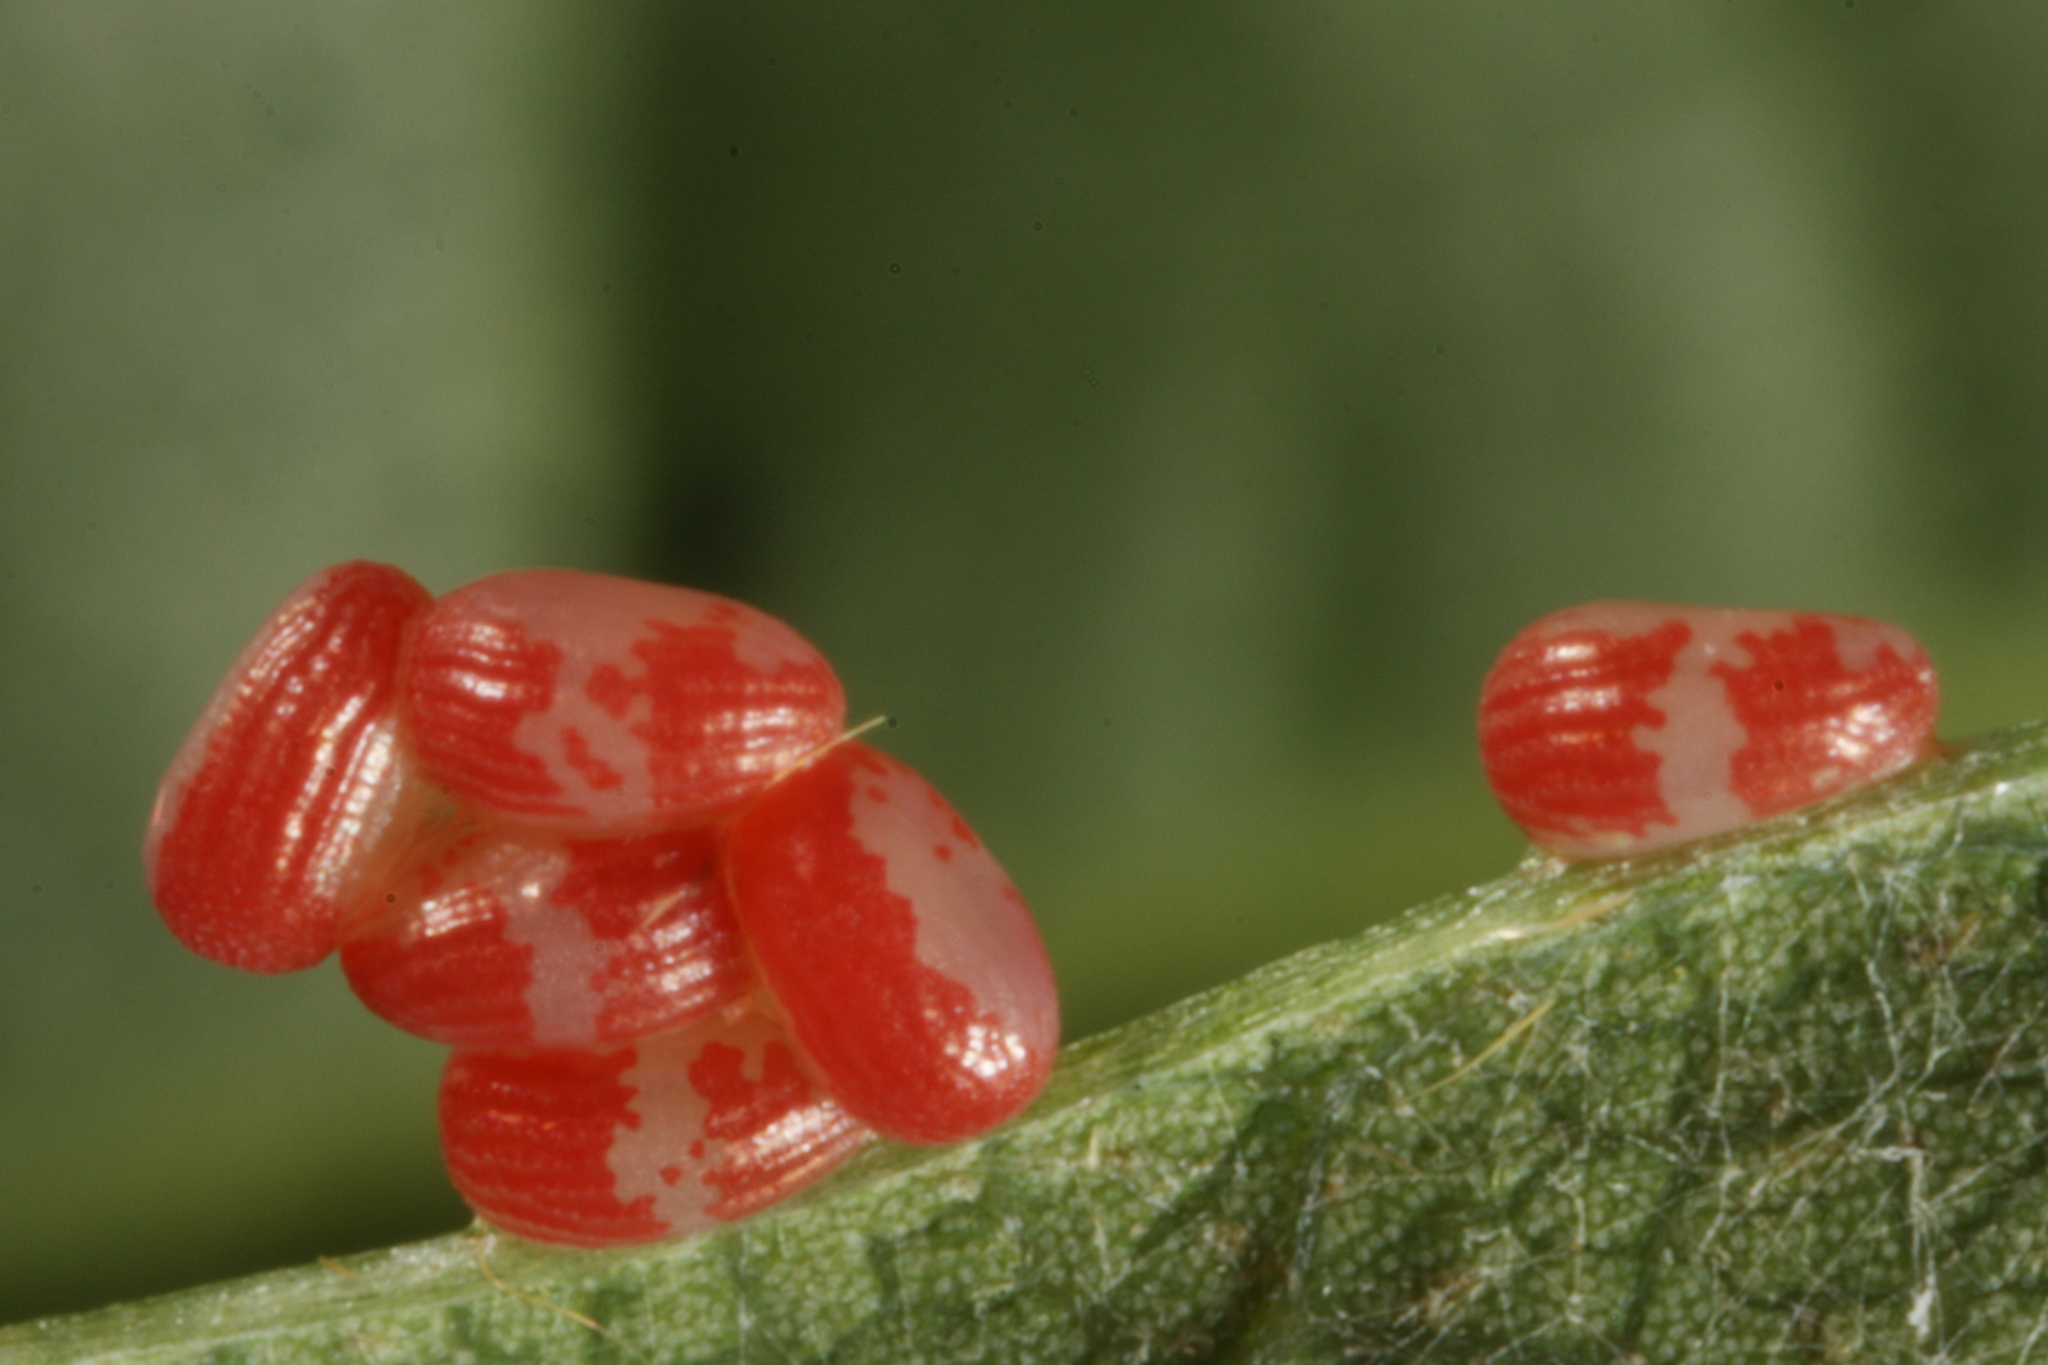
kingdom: Animalia
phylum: Arthropoda
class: Insecta
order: Lepidoptera
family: Drepanidae
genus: Watsonalla
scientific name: Watsonalla binaria
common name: Oak hook-tip
